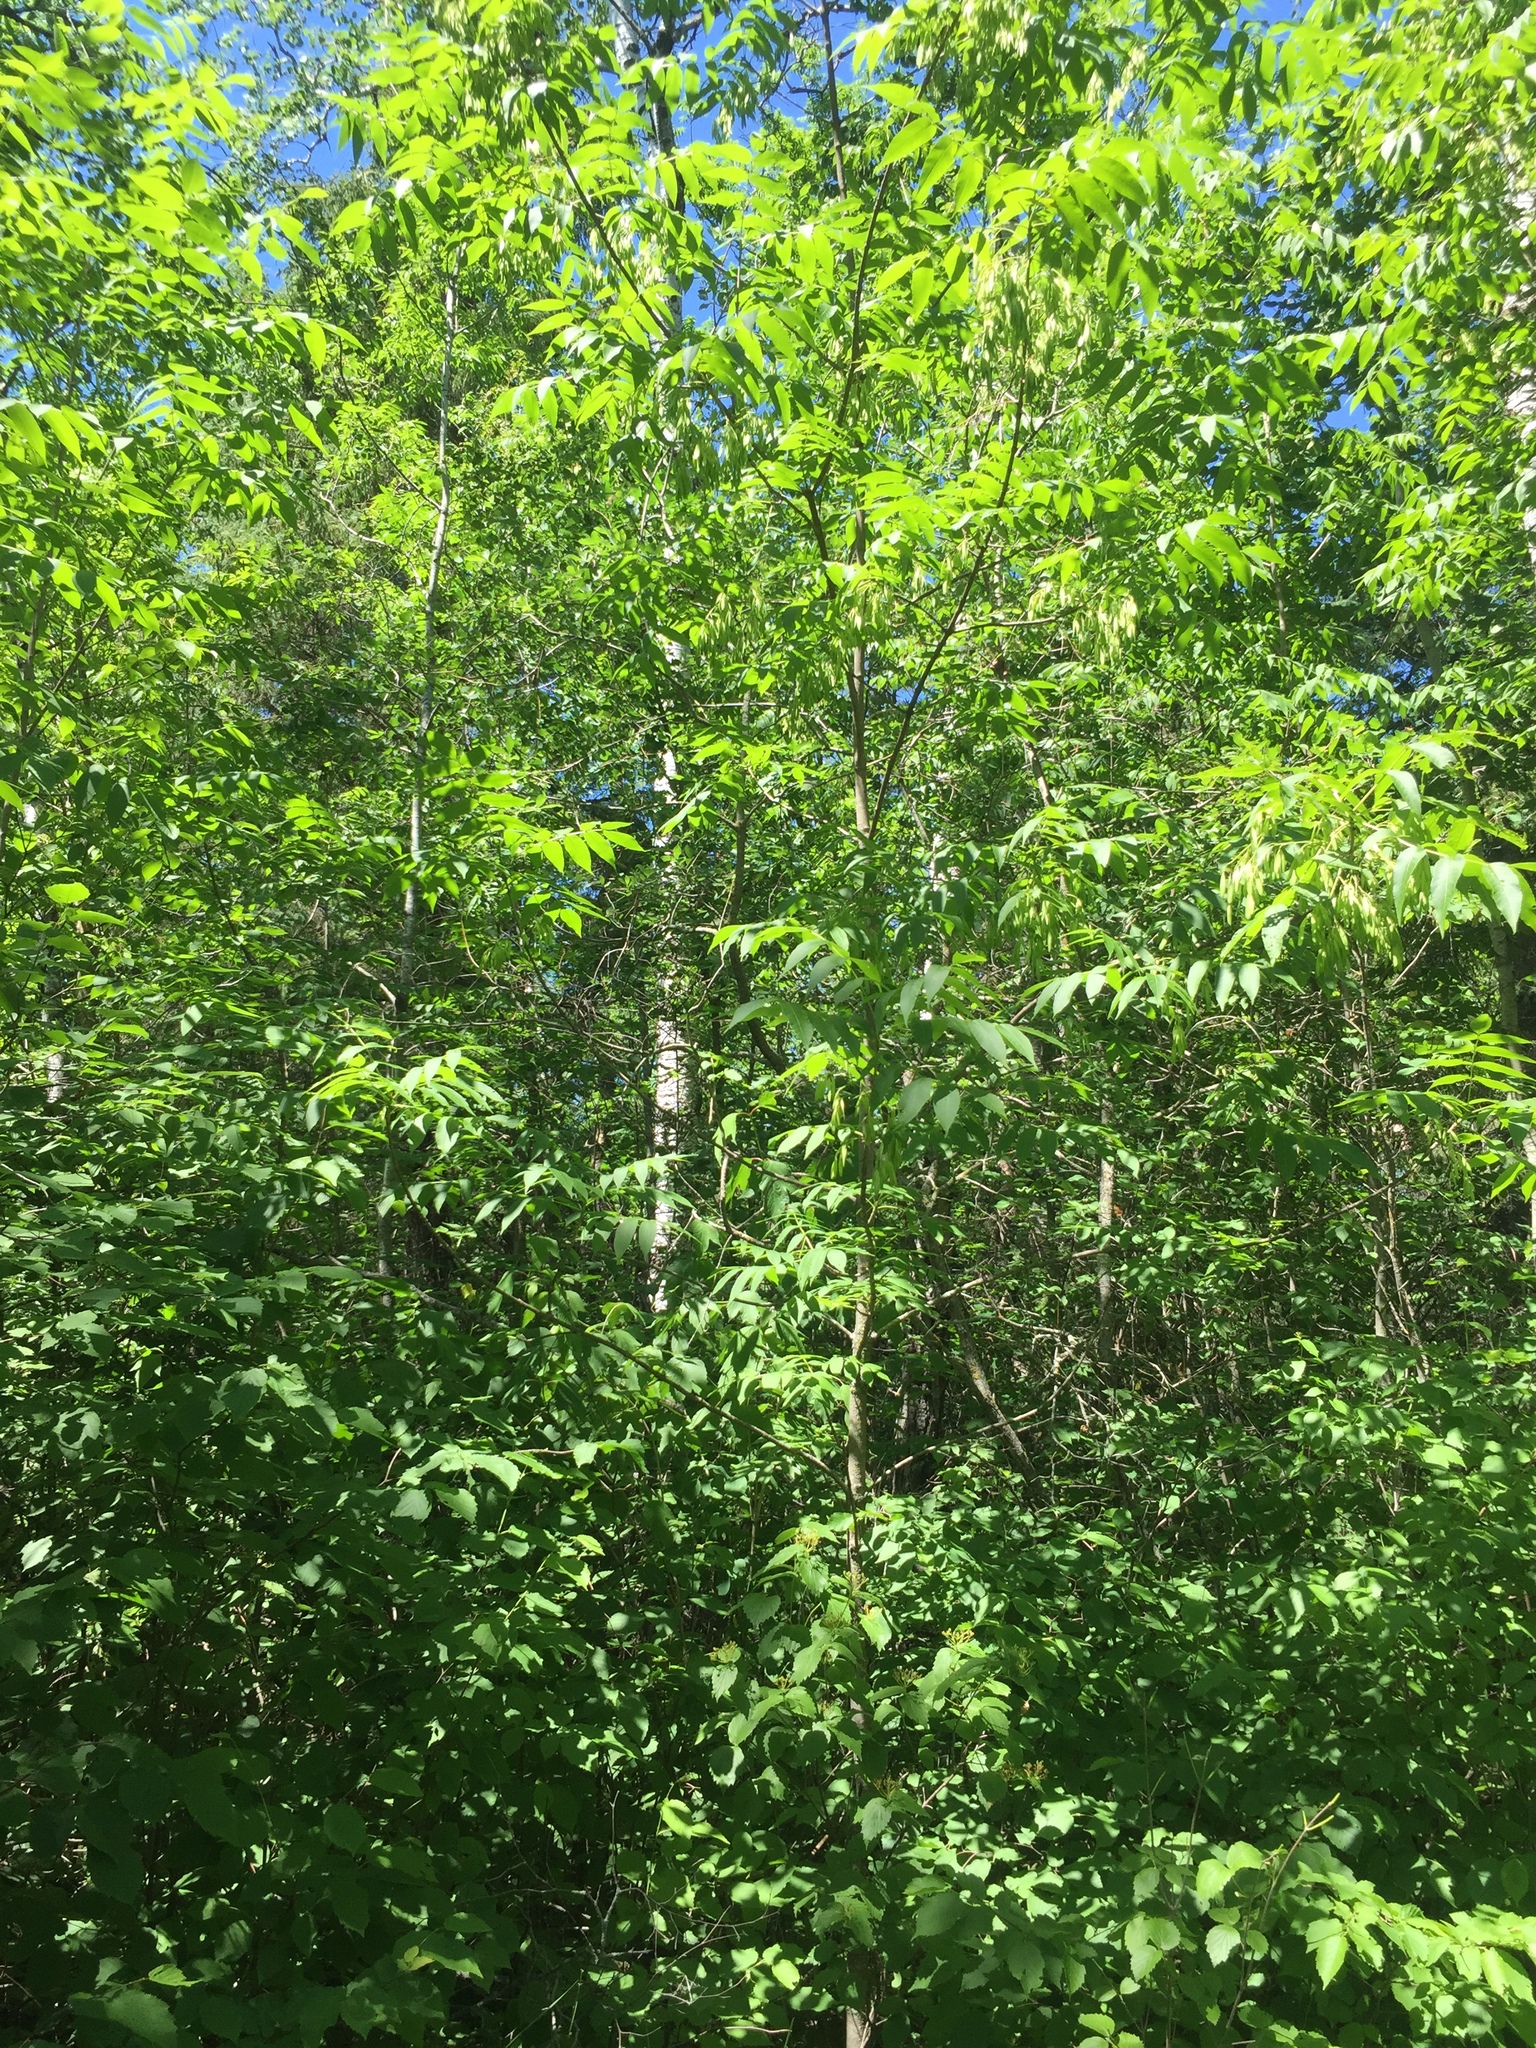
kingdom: Plantae
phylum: Tracheophyta
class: Magnoliopsida
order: Lamiales
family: Oleaceae
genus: Fraxinus
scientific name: Fraxinus nigra
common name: Black ash
